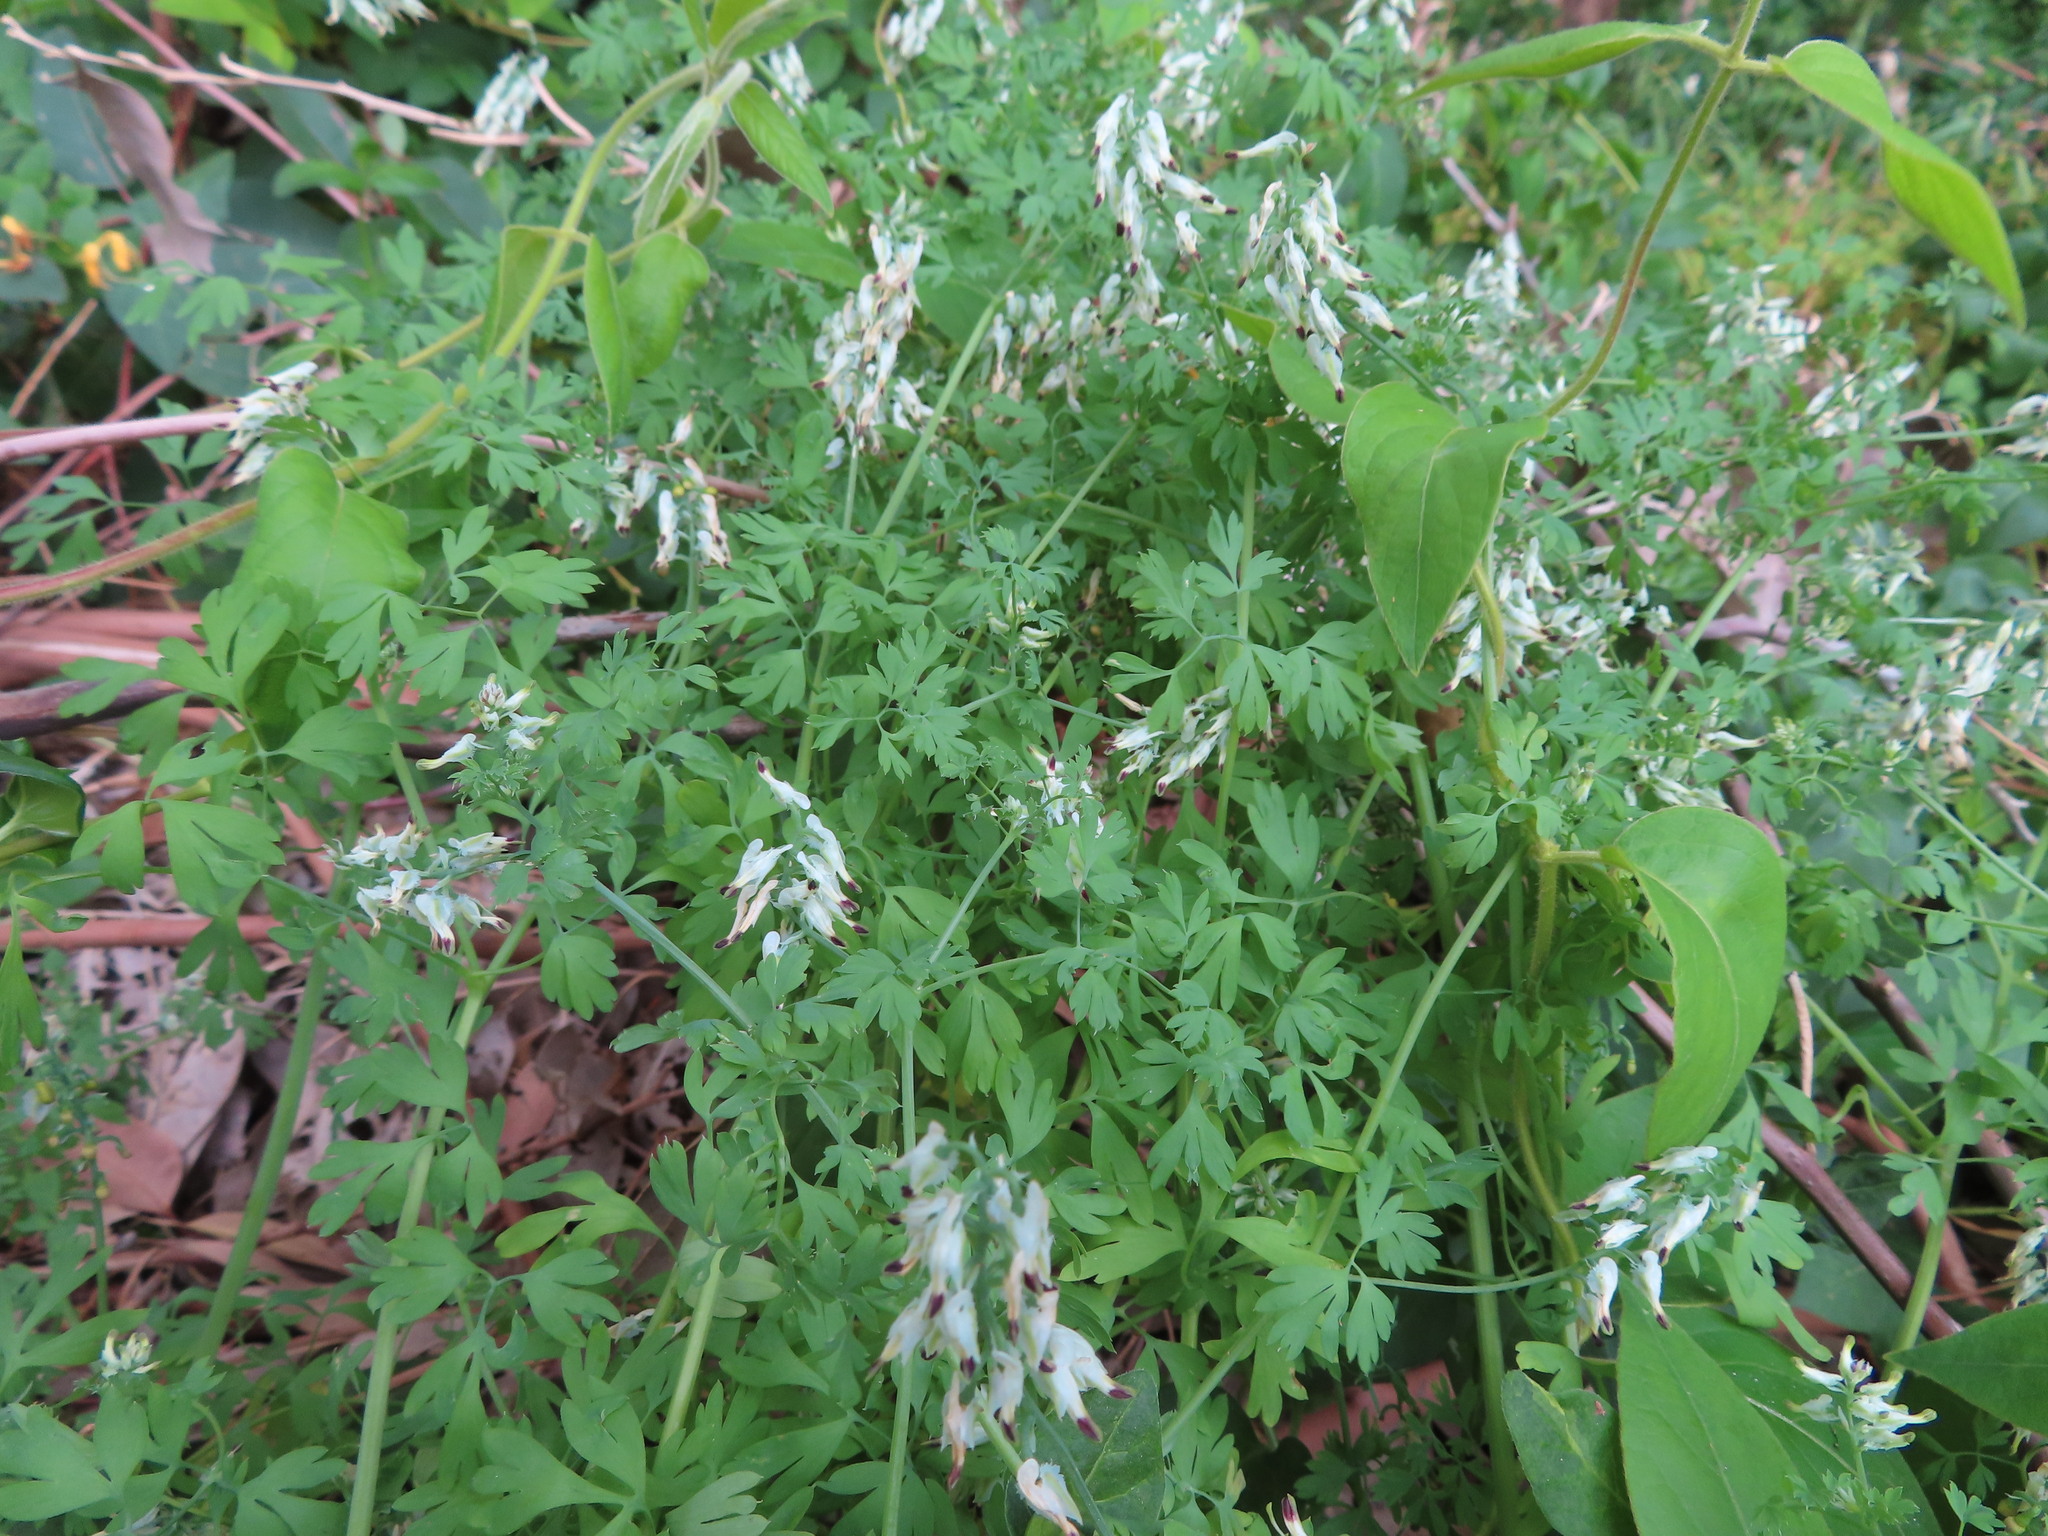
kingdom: Plantae
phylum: Tracheophyta
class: Magnoliopsida
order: Ranunculales
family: Papaveraceae
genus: Fumaria
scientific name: Fumaria capreolata
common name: White ramping-fumitory
